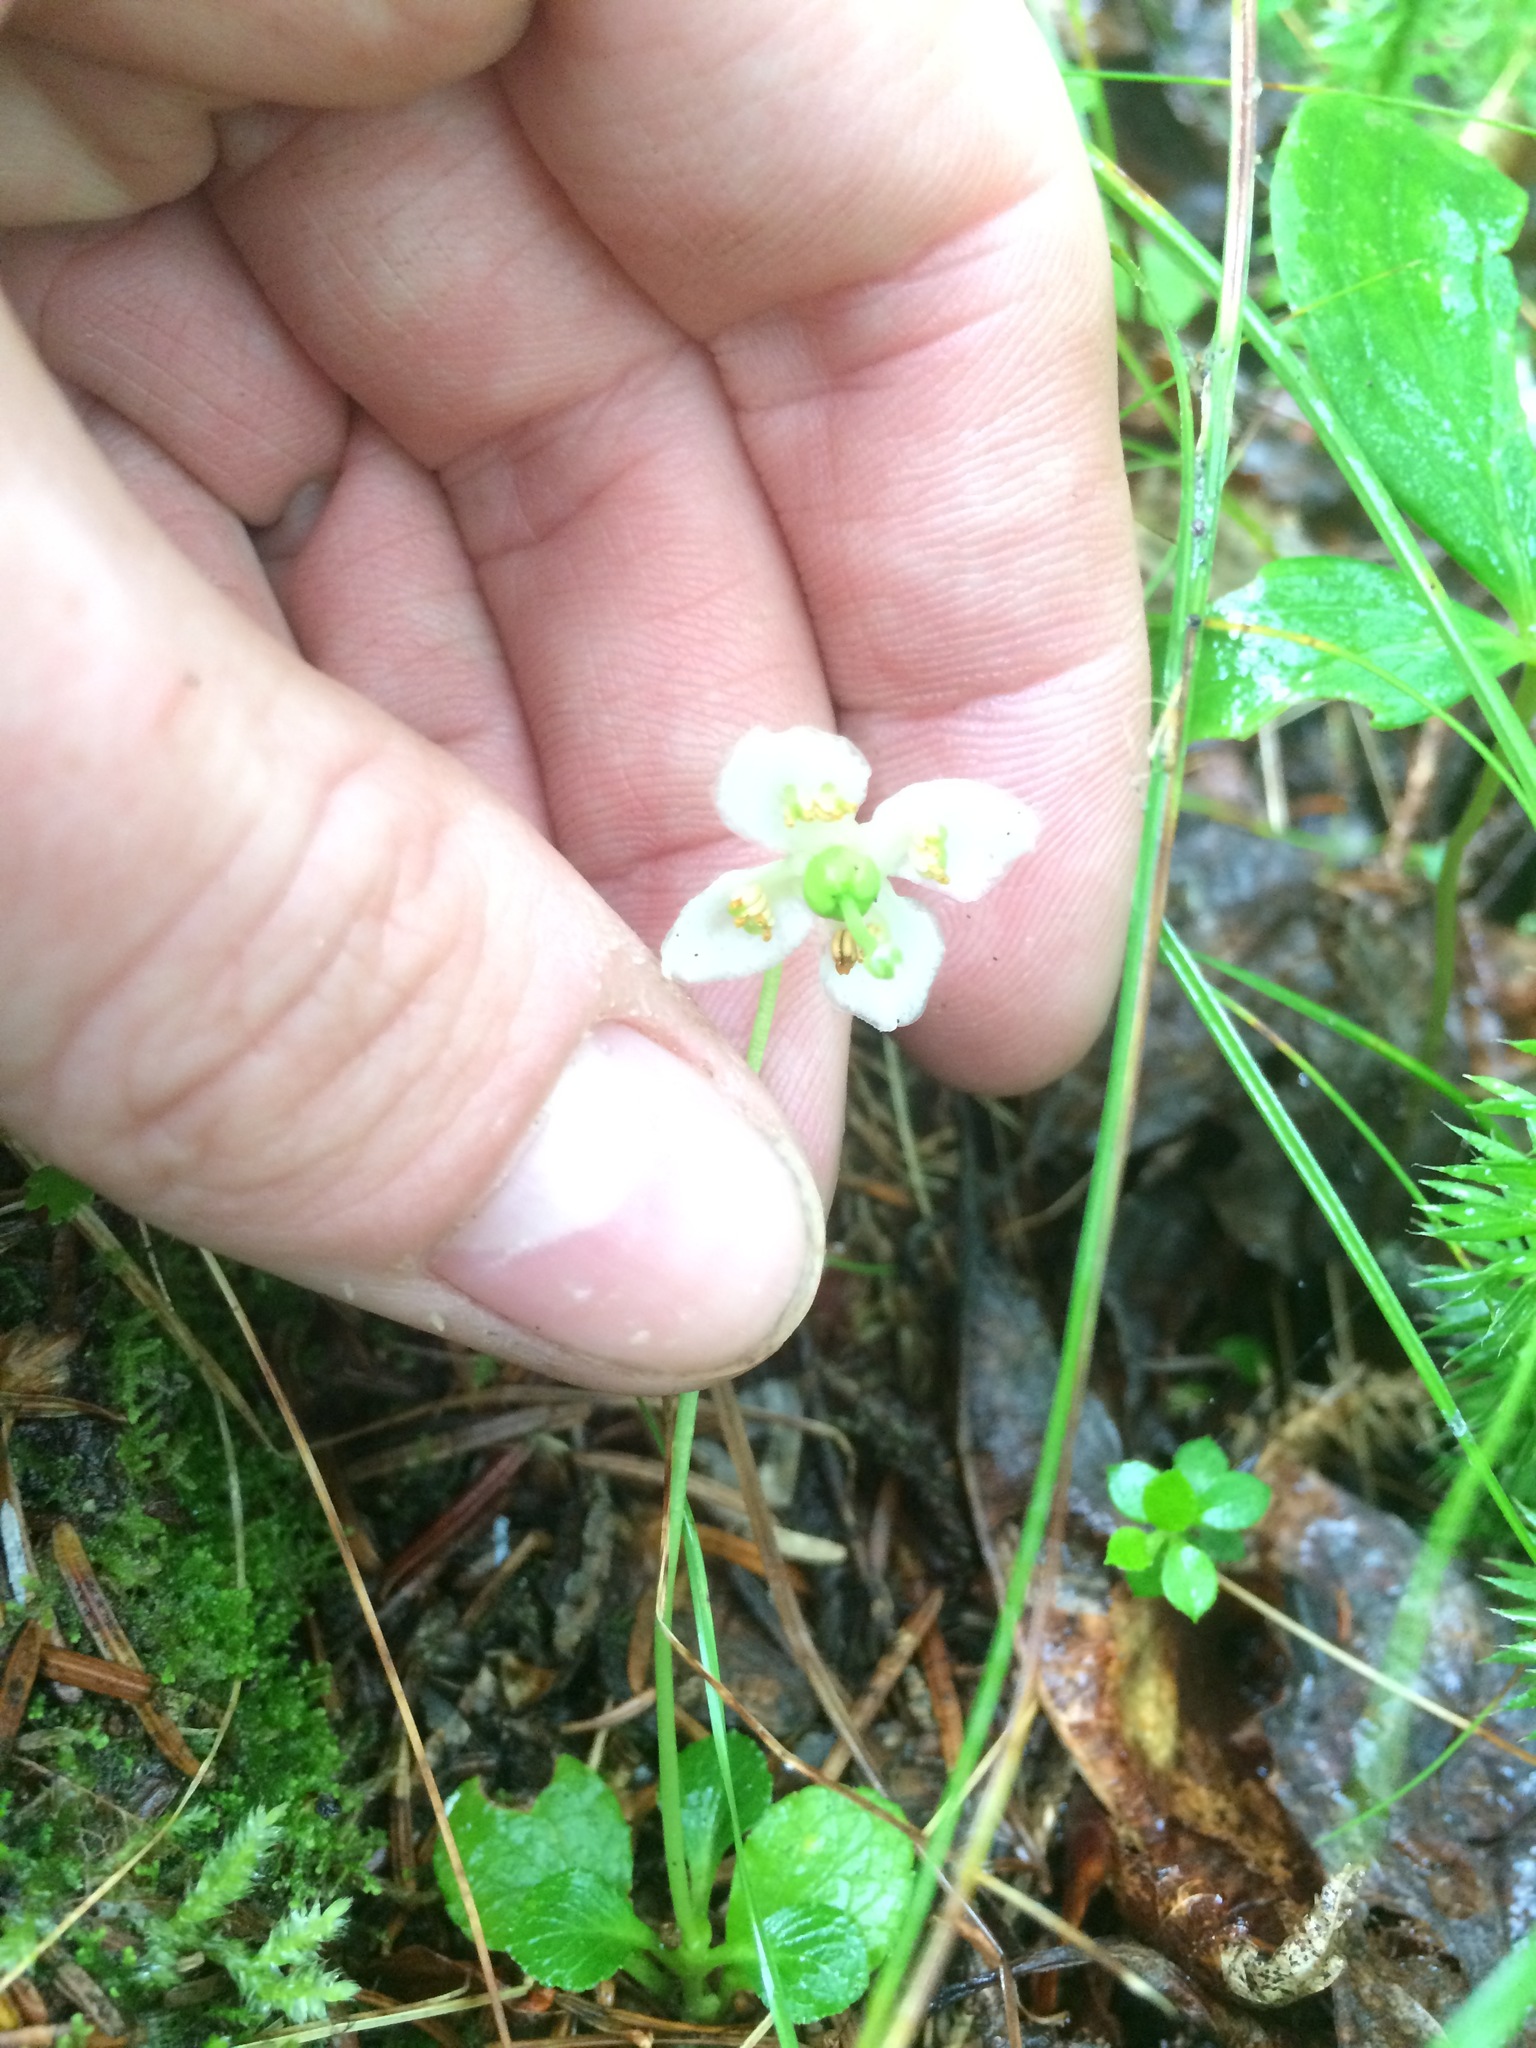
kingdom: Plantae
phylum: Tracheophyta
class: Magnoliopsida
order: Ericales
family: Ericaceae
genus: Moneses
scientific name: Moneses uniflora
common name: One-flowered wintergreen
